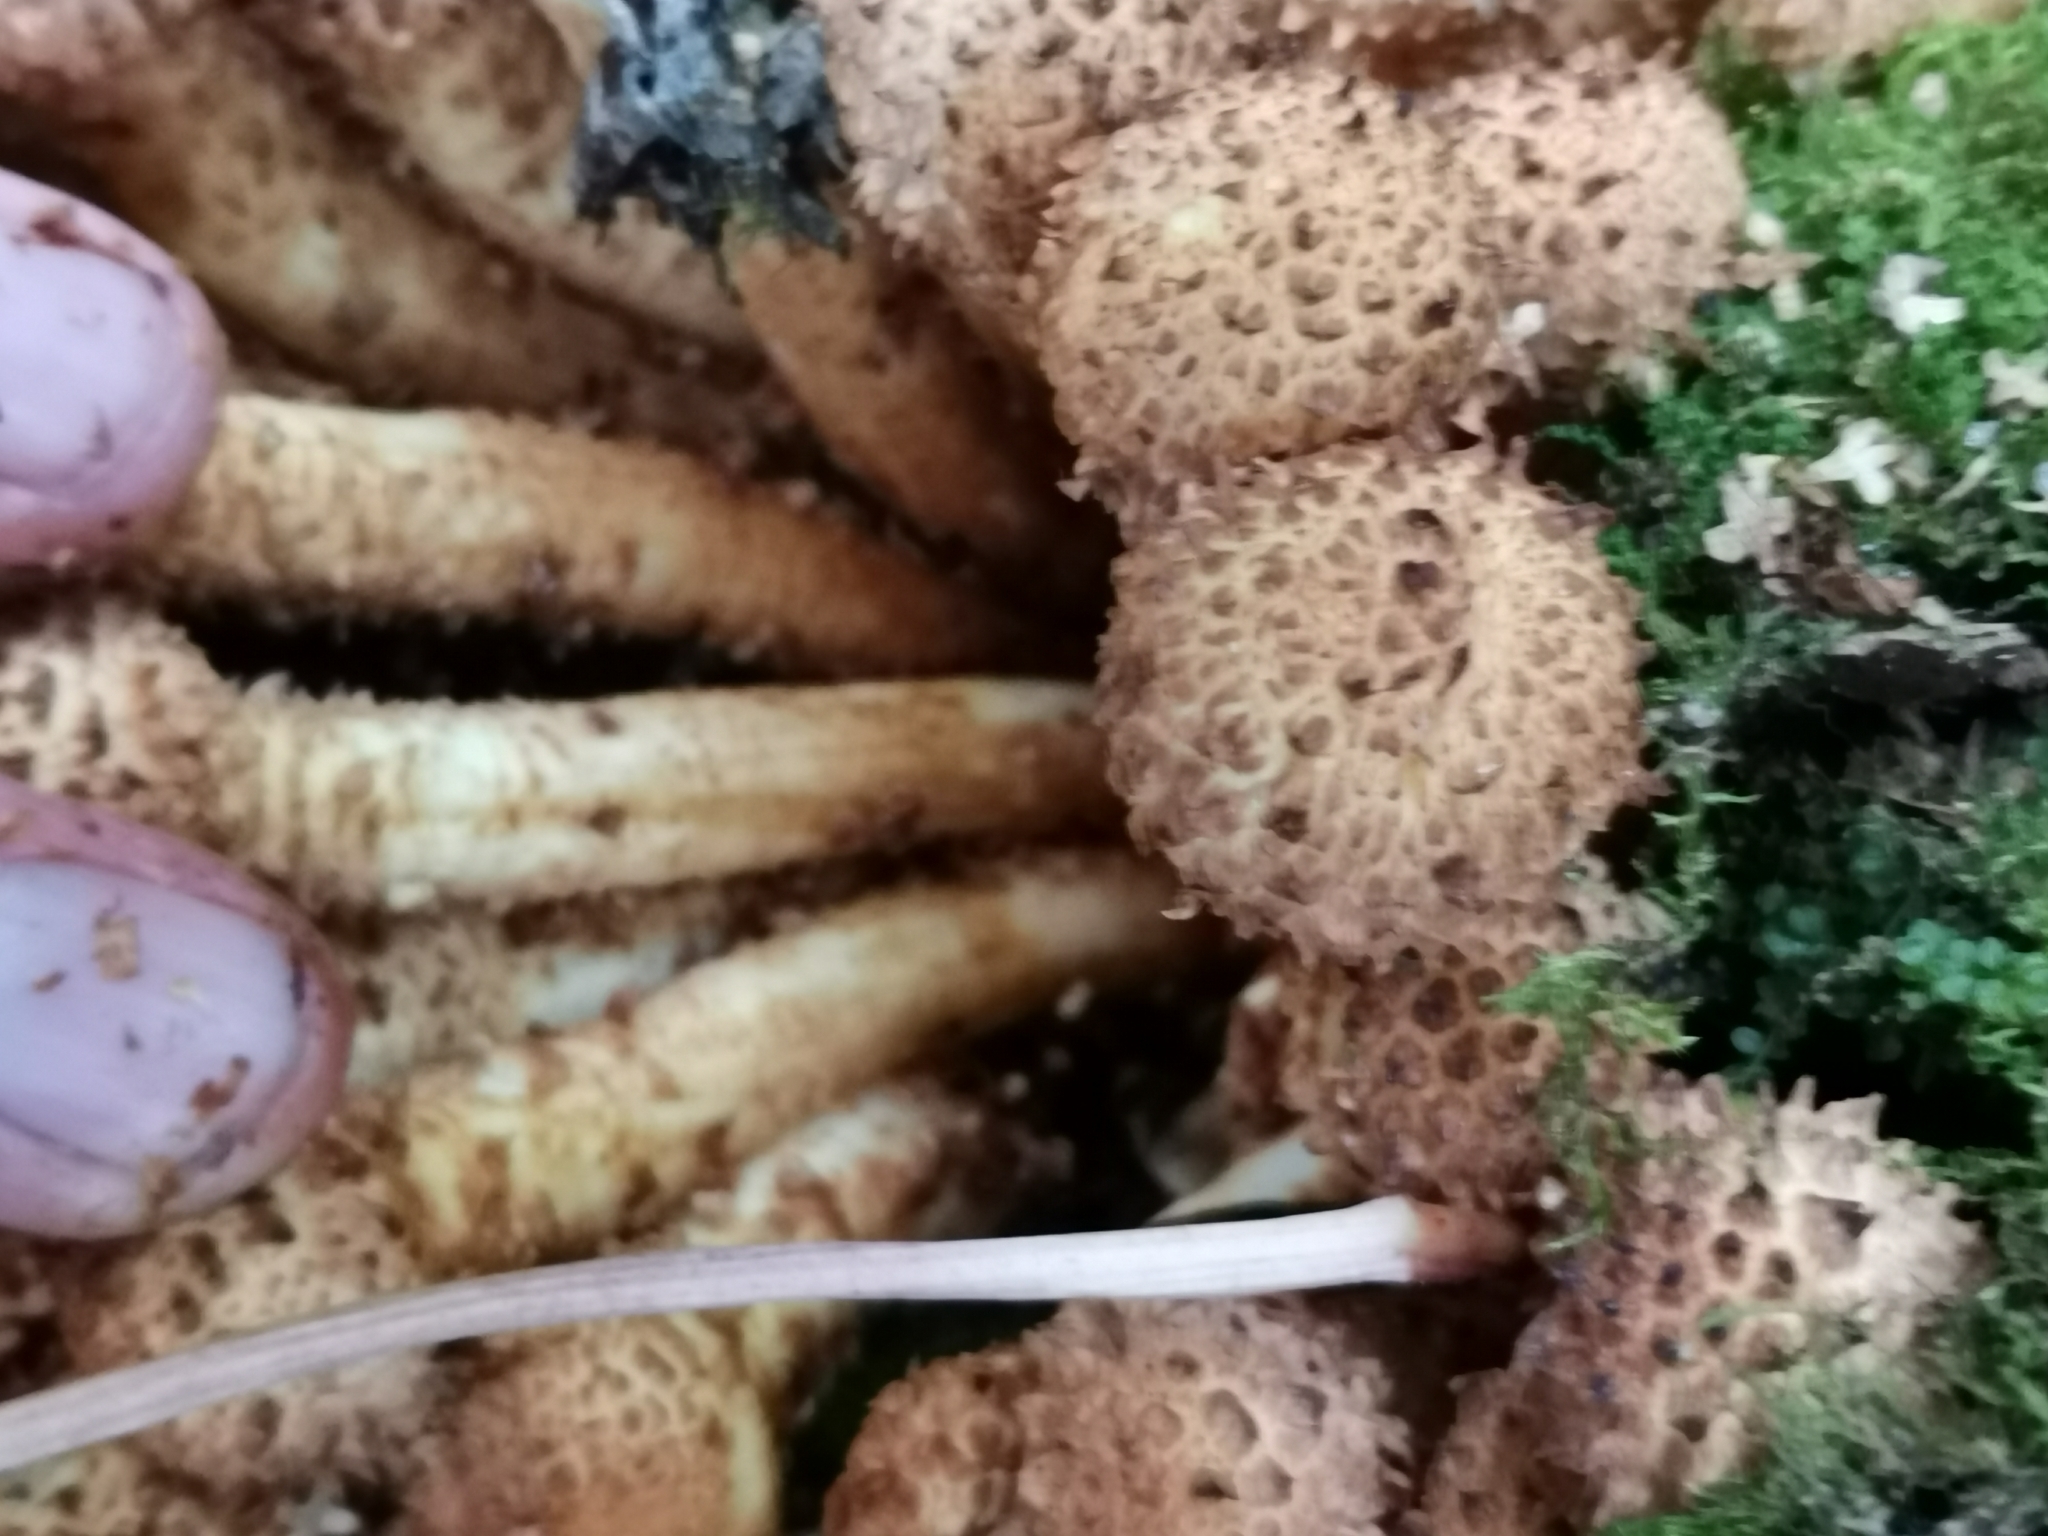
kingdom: Fungi
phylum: Basidiomycota
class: Agaricomycetes
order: Agaricales
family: Strophariaceae
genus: Pholiota
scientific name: Pholiota squarrosa
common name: Shaggy pholiota
